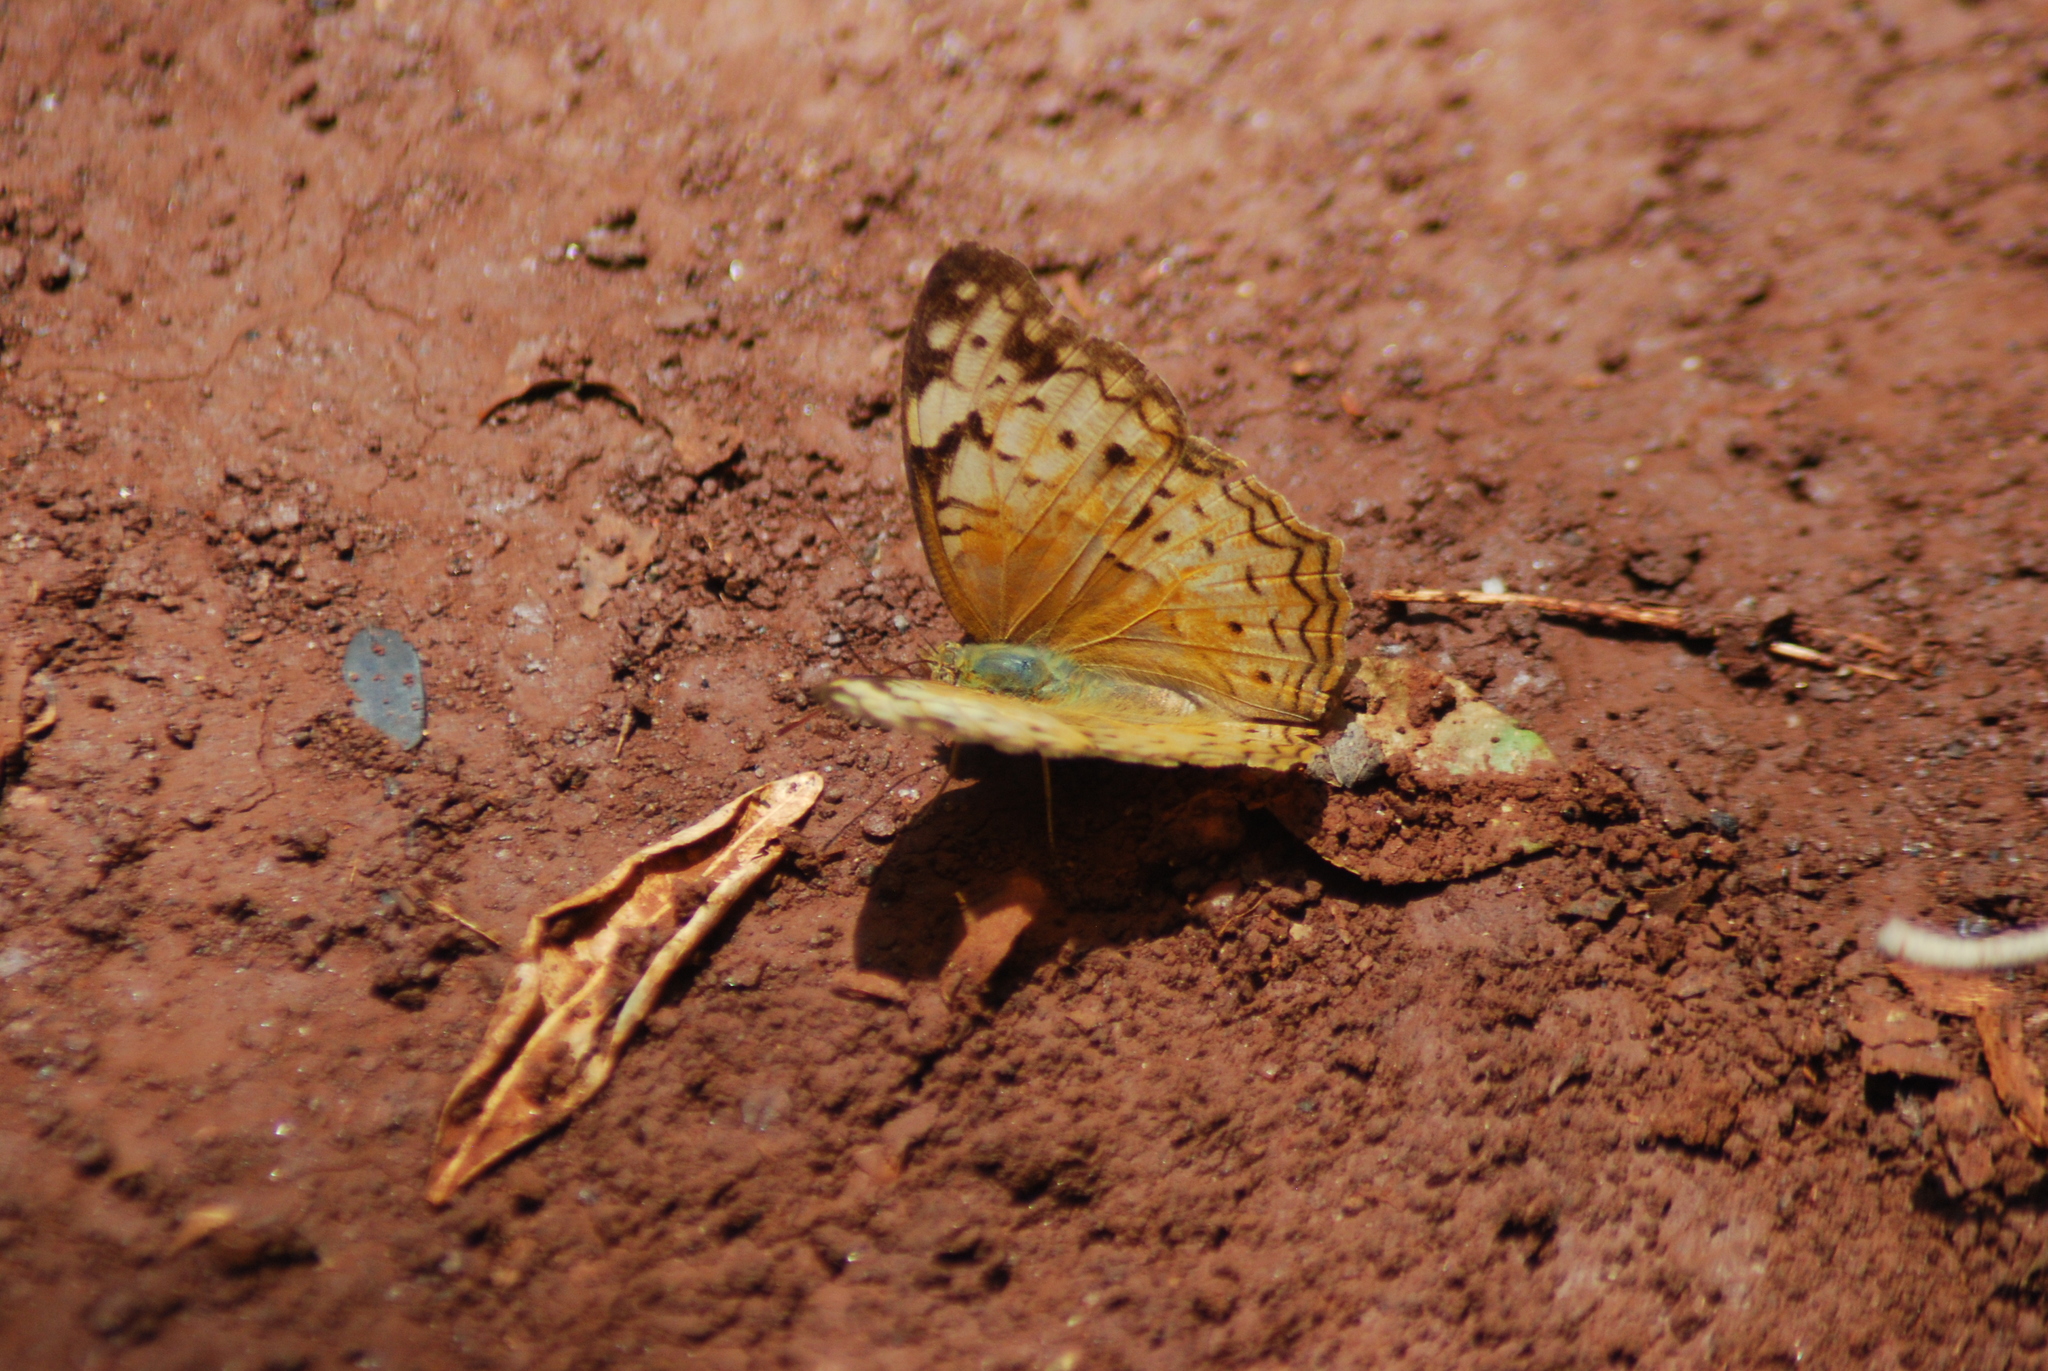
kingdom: Animalia
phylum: Arthropoda
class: Insecta
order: Lepidoptera
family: Nymphalidae
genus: Lachnoptera
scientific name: Lachnoptera ayresii
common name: Blotched leopard
